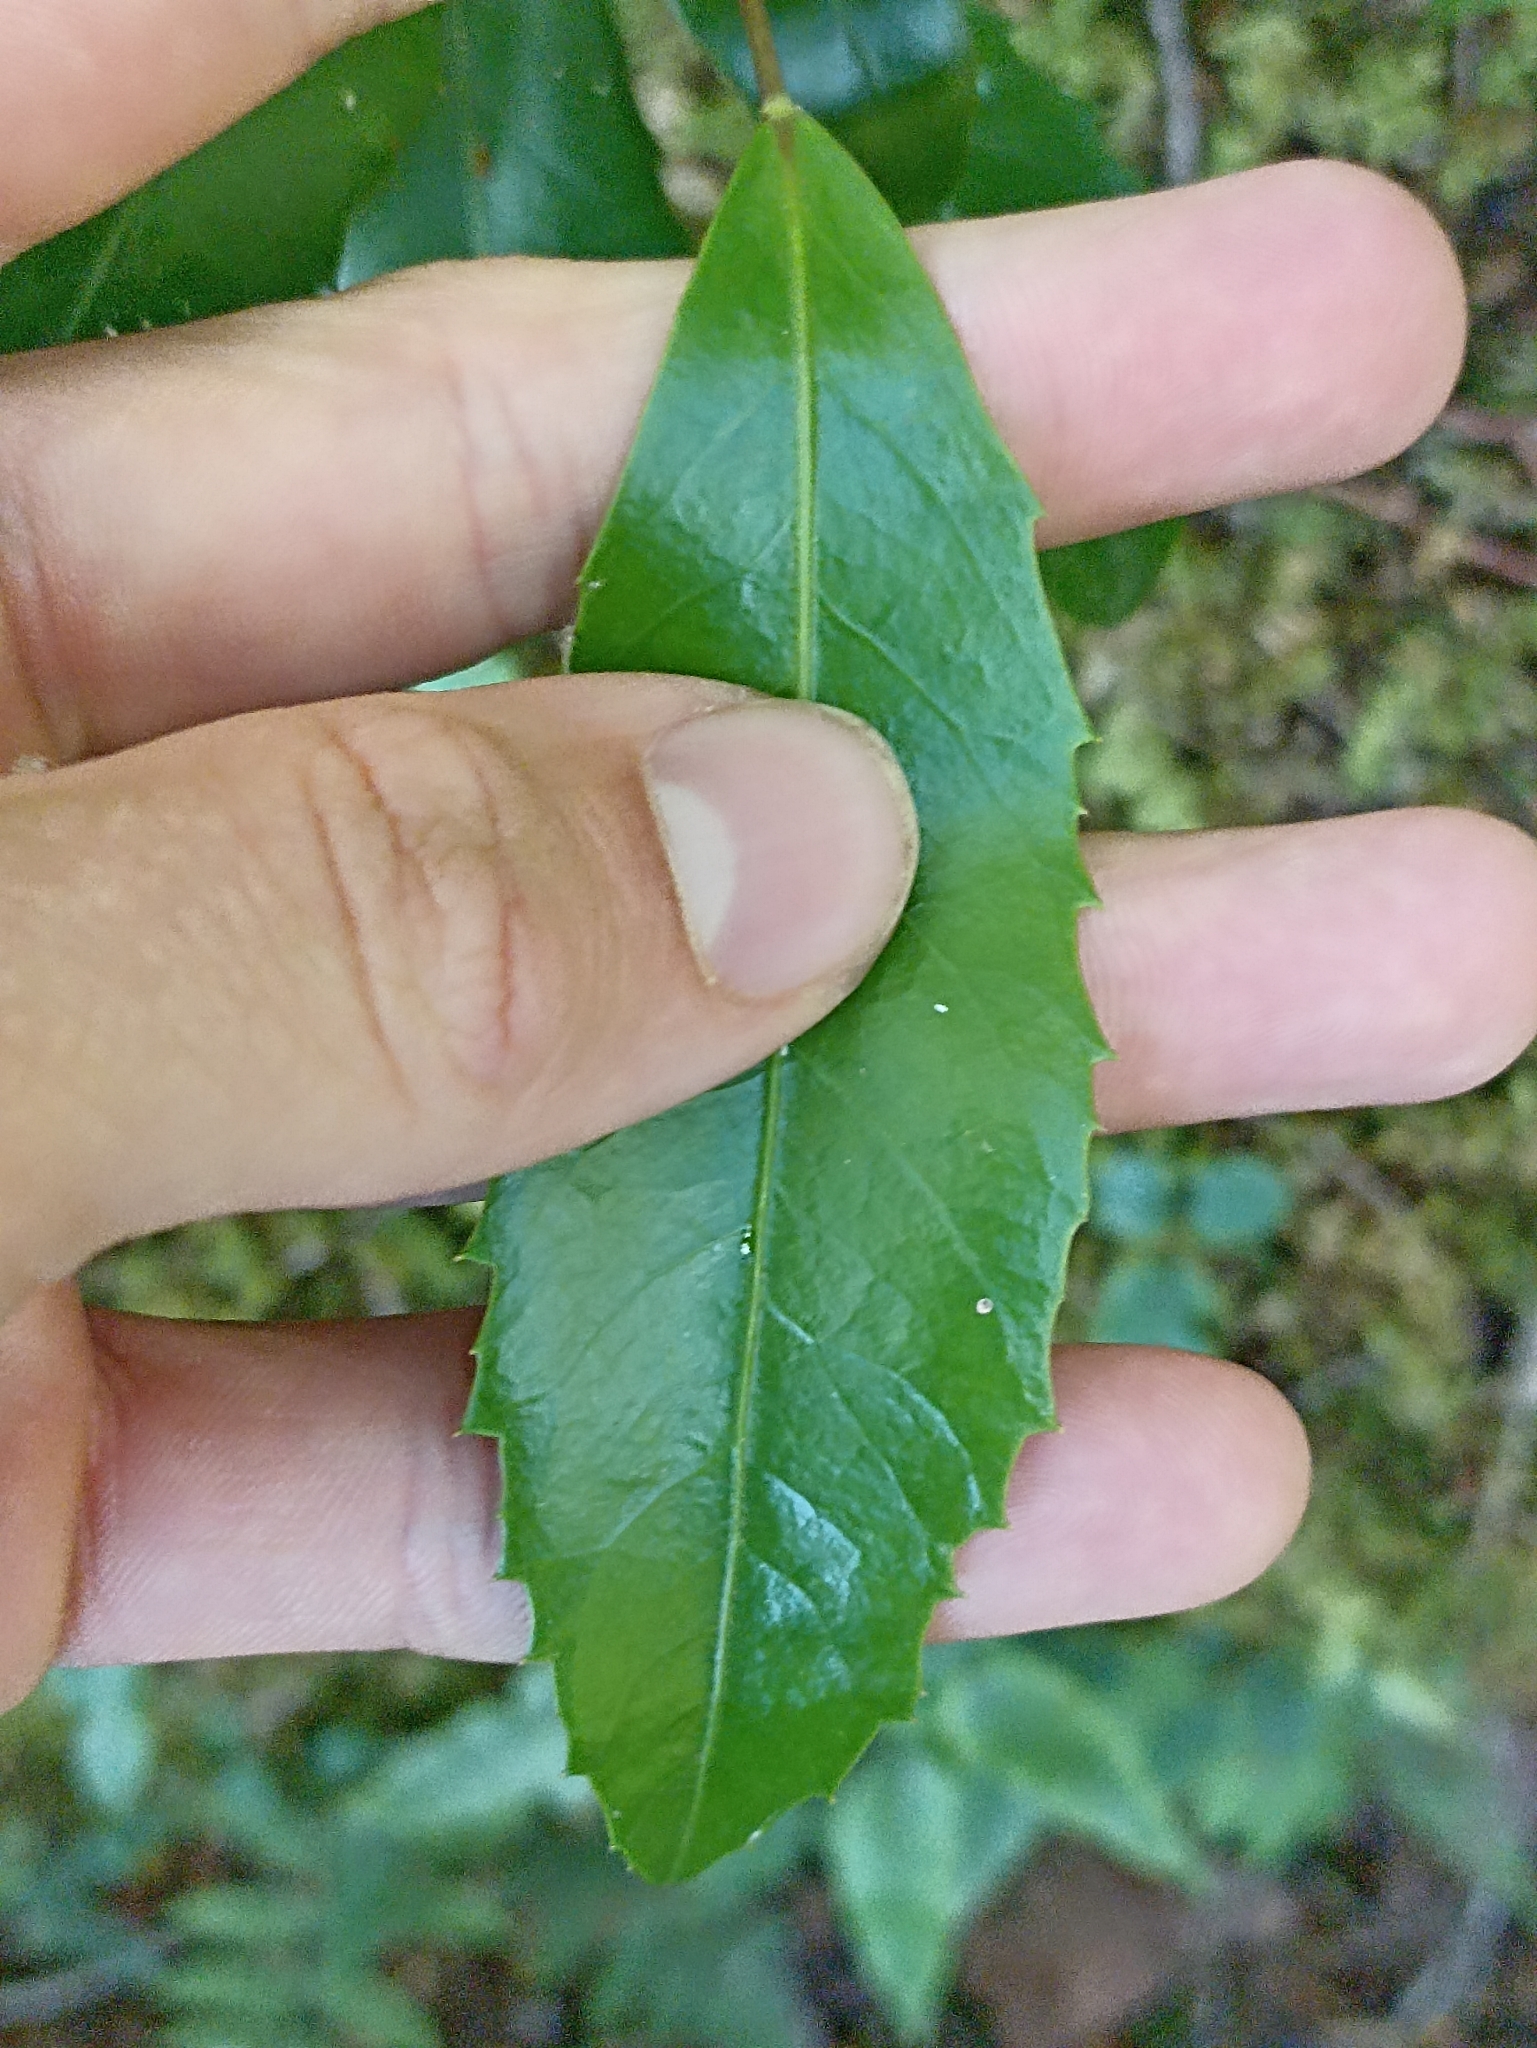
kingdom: Plantae
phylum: Tracheophyta
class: Magnoliopsida
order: Apiales
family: Araliaceae
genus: Raukaua
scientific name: Raukaua simplex
